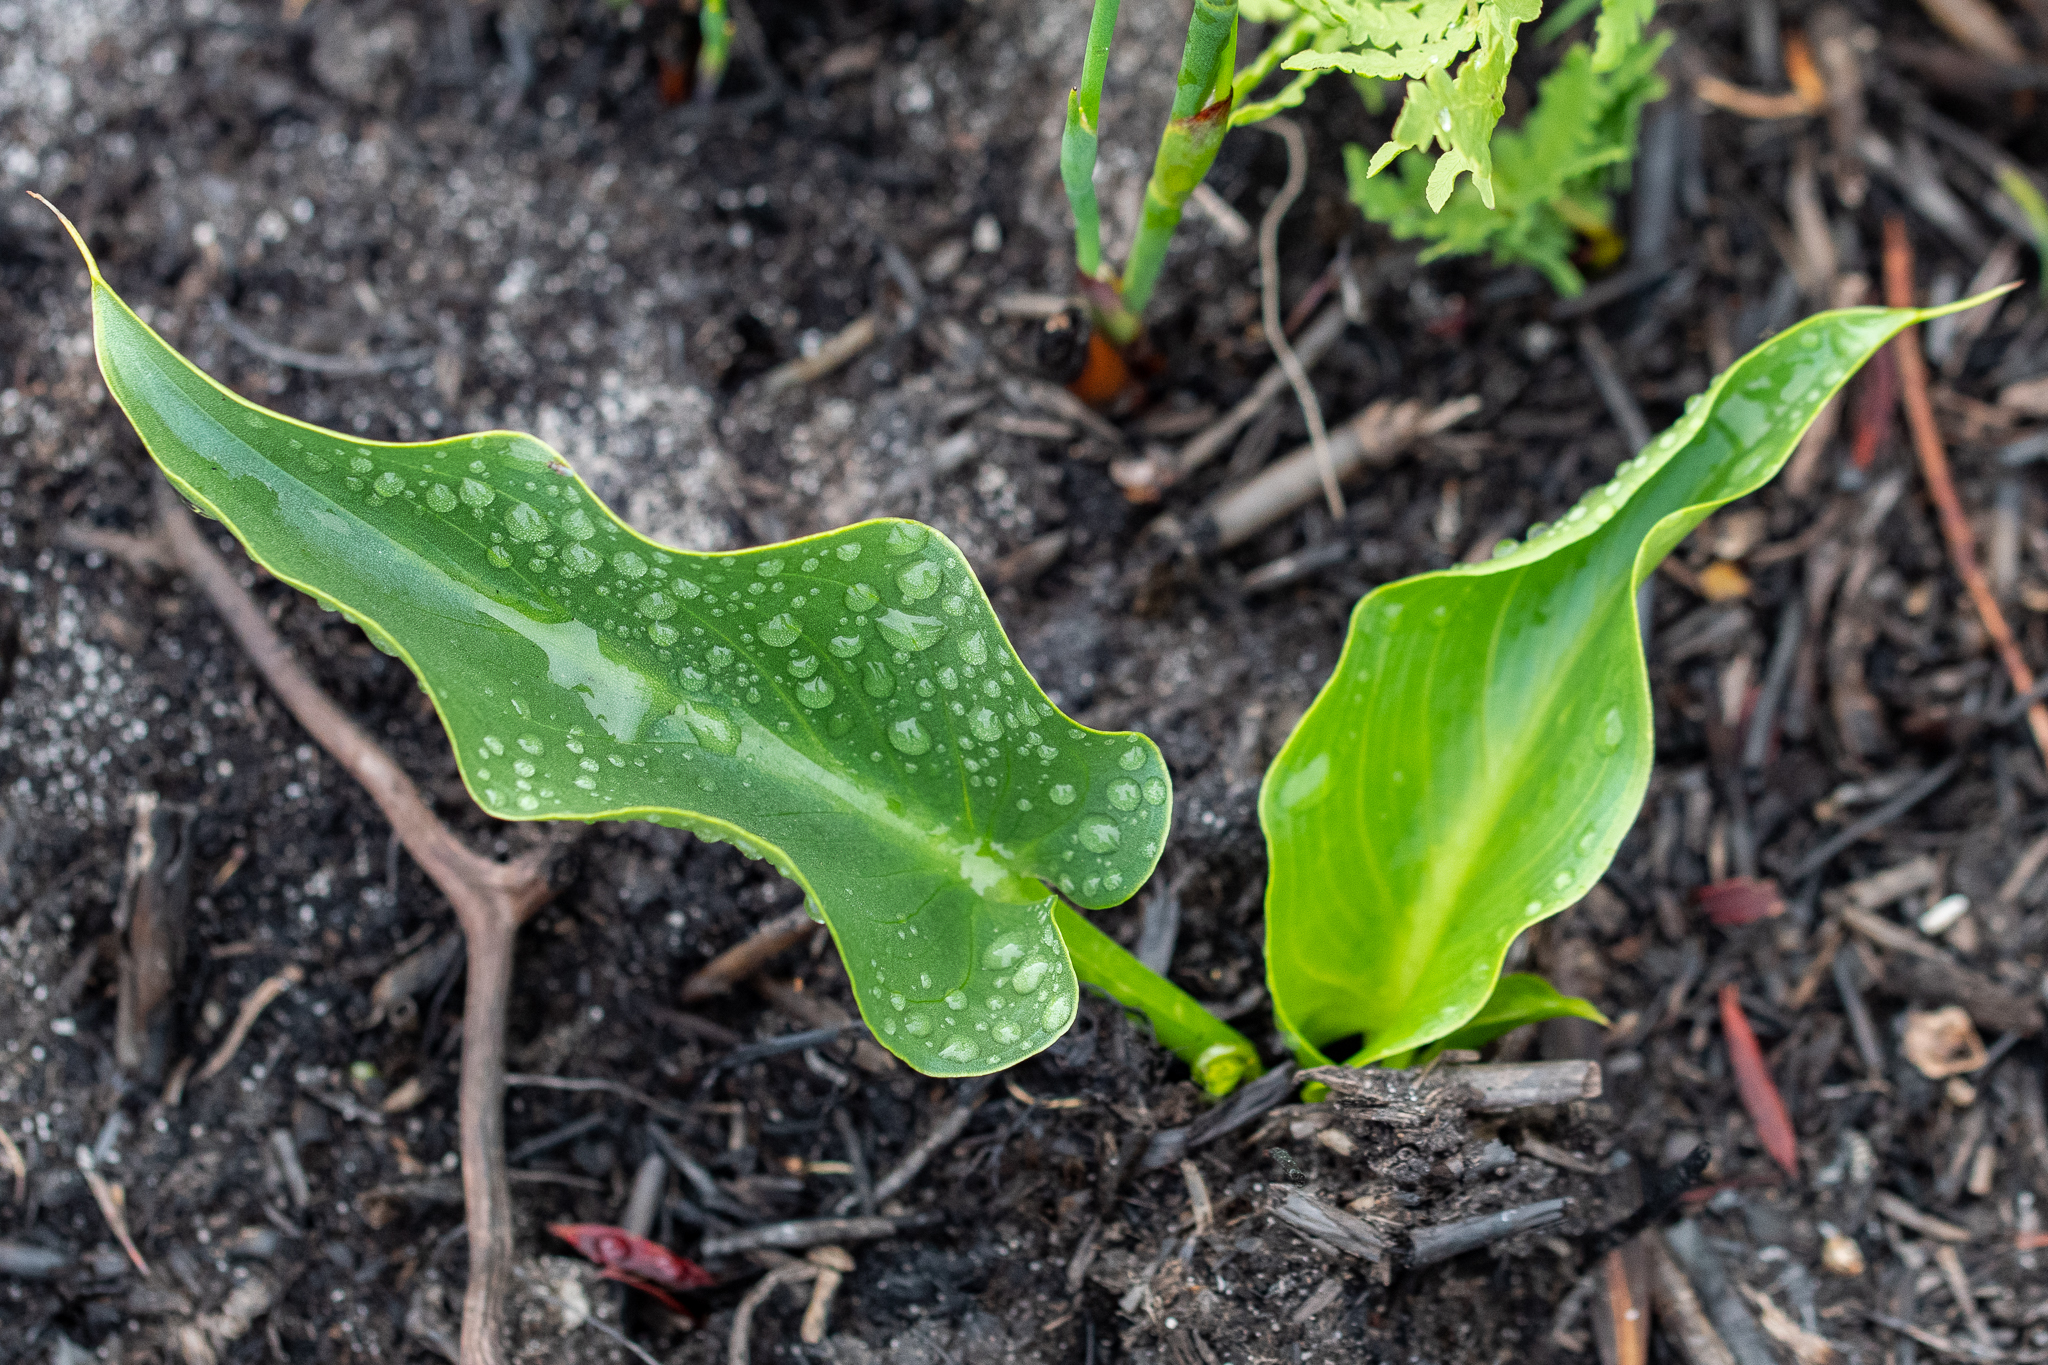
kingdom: Plantae
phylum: Tracheophyta
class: Liliopsida
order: Alismatales
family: Araceae
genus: Zantedeschia
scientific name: Zantedeschia aethiopica
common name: Altar-lily
